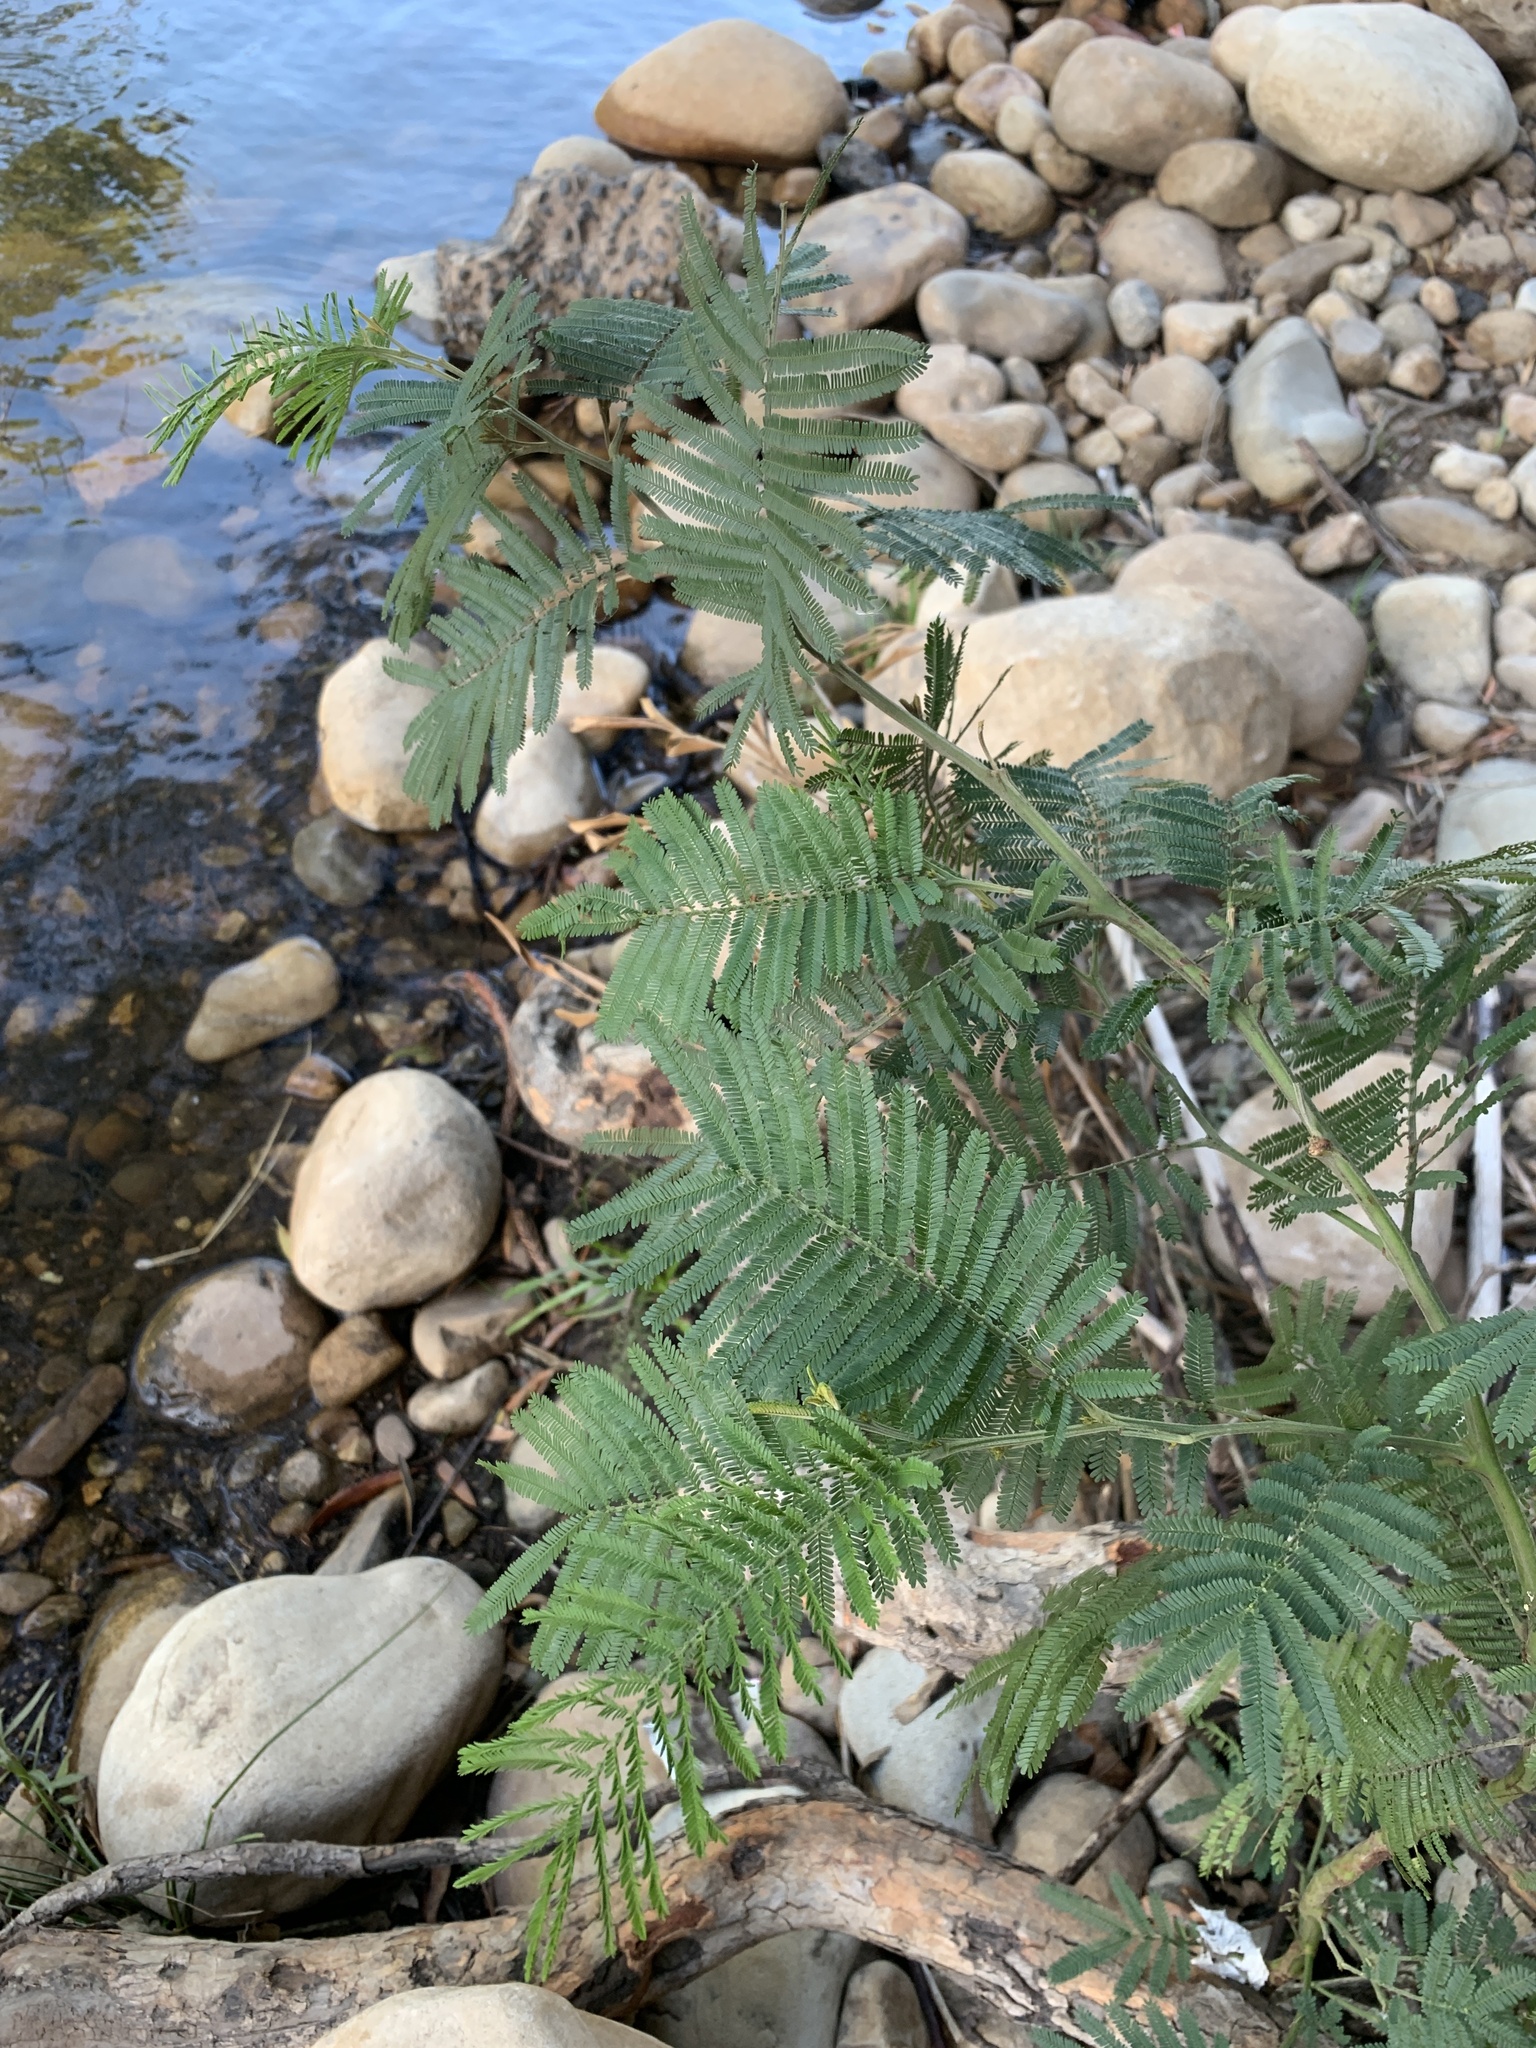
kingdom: Plantae
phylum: Tracheophyta
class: Magnoliopsida
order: Fabales
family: Fabaceae
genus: Acacia
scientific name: Acacia mearnsii
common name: Black wattle
